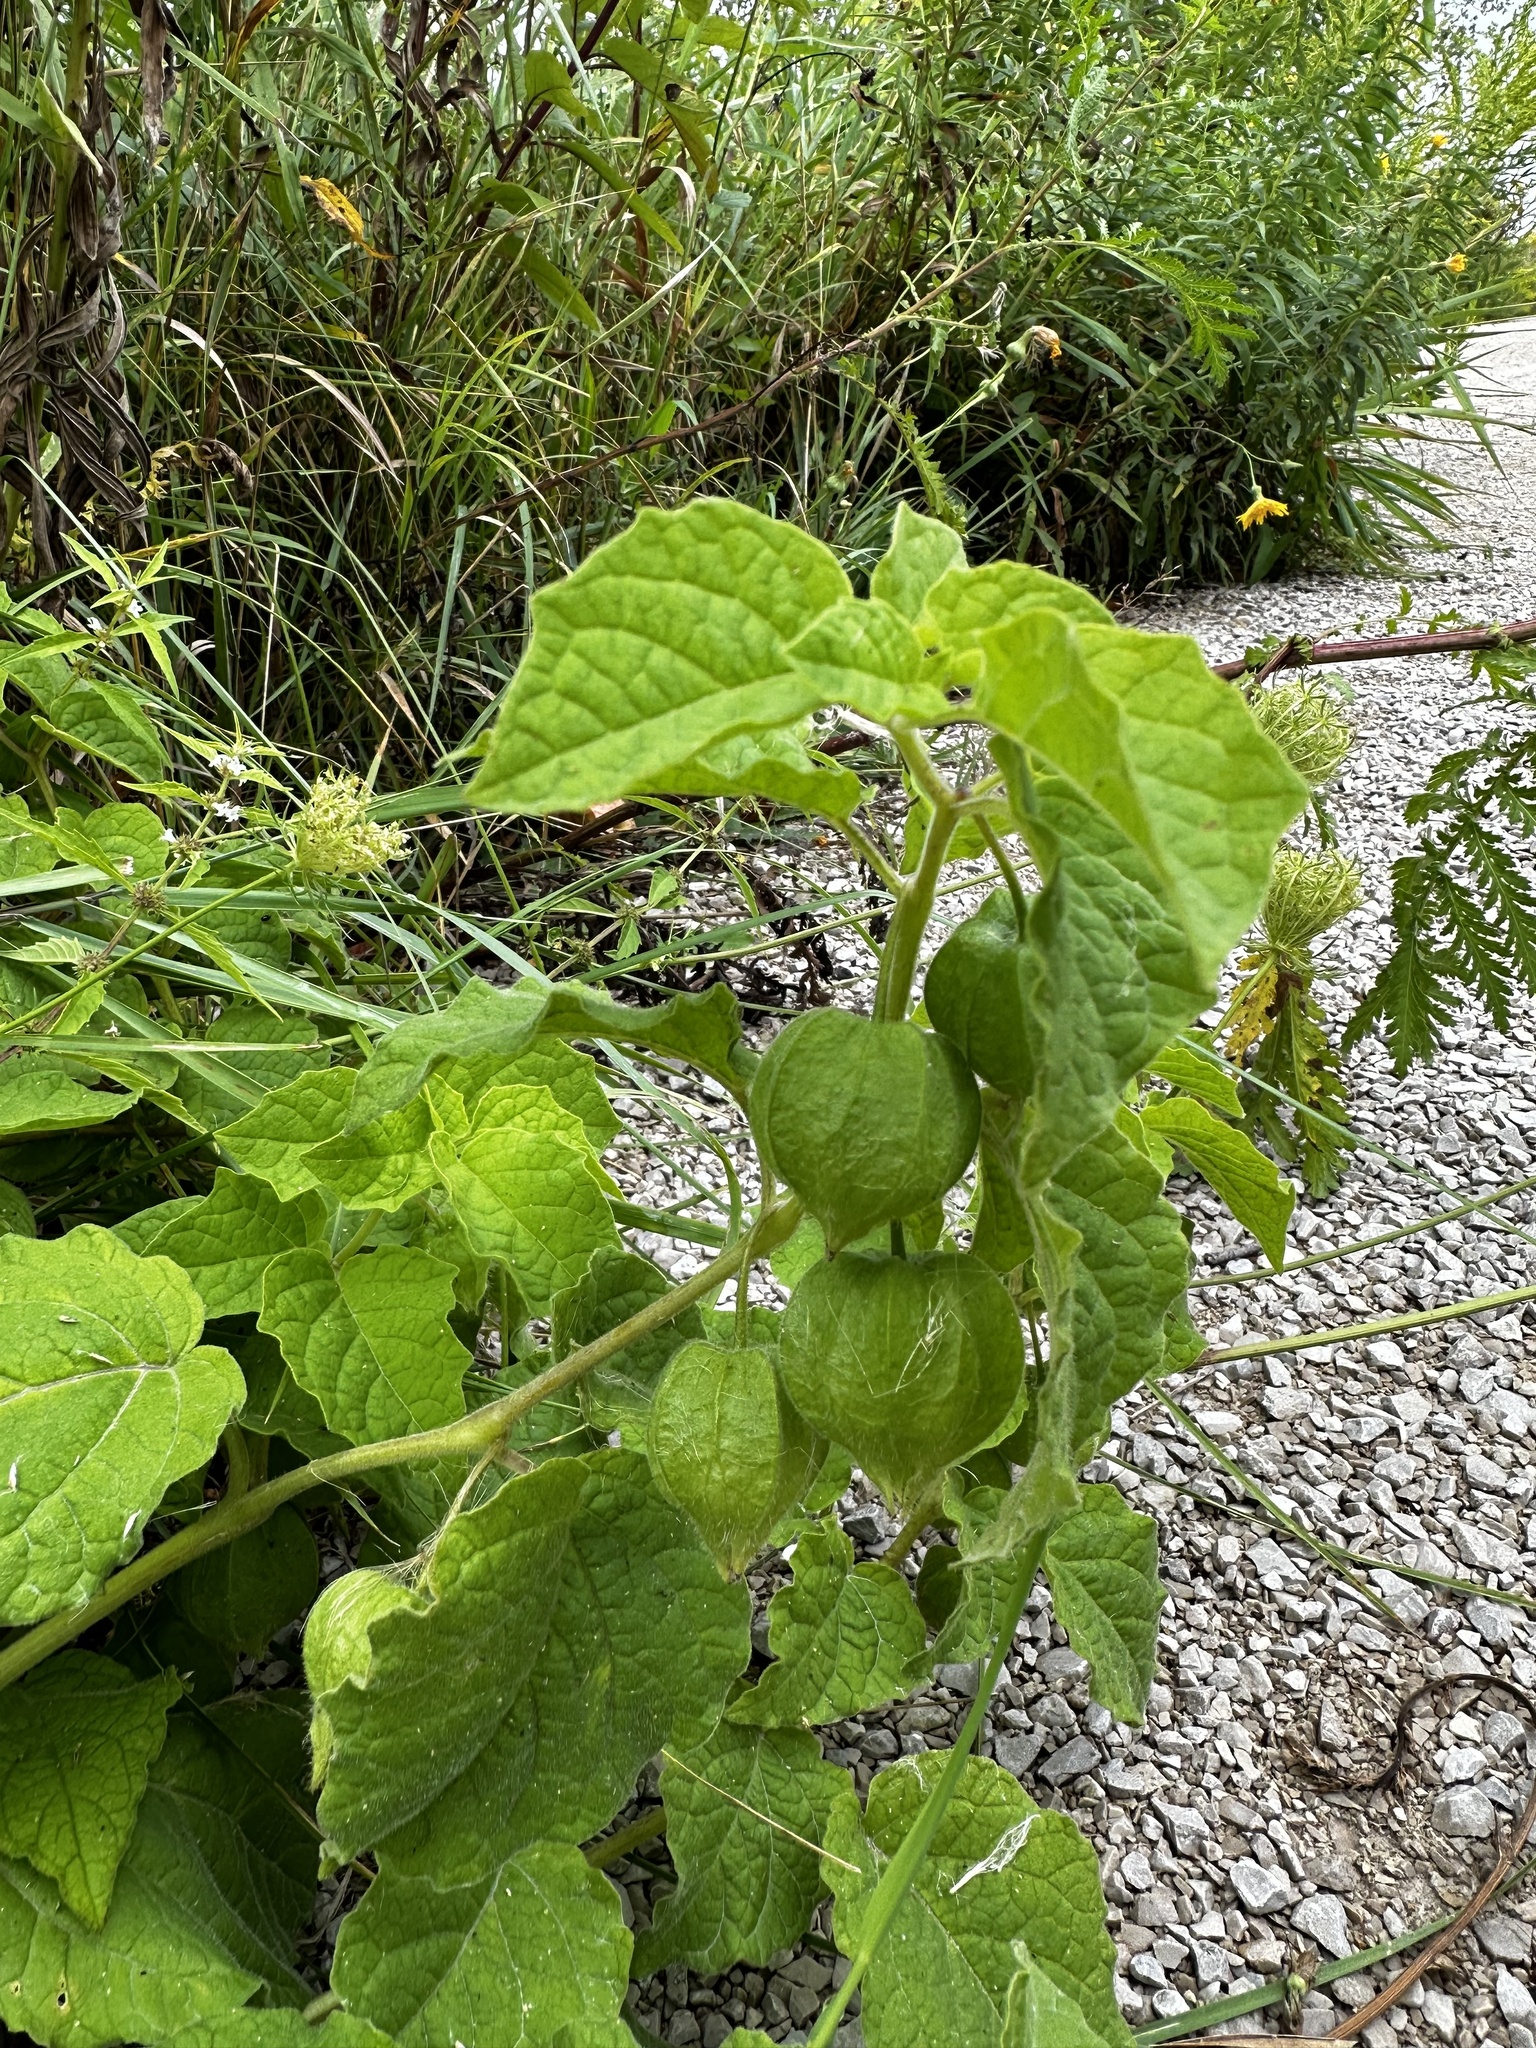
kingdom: Plantae
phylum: Tracheophyta
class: Magnoliopsida
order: Solanales
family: Solanaceae
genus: Physalis
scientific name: Physalis heterophylla
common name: Clammy ground-cherry
